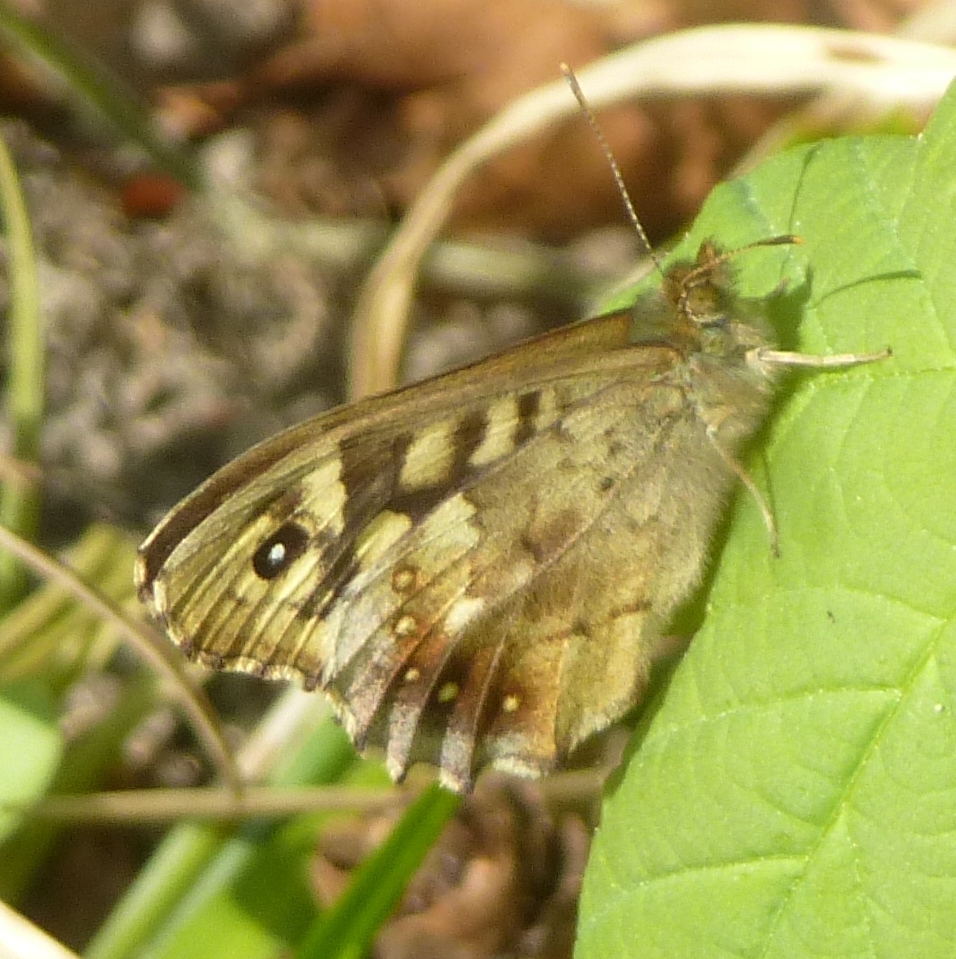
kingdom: Animalia
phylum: Arthropoda
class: Insecta
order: Lepidoptera
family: Nymphalidae
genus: Pararge
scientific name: Pararge aegeria
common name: Speckled wood
